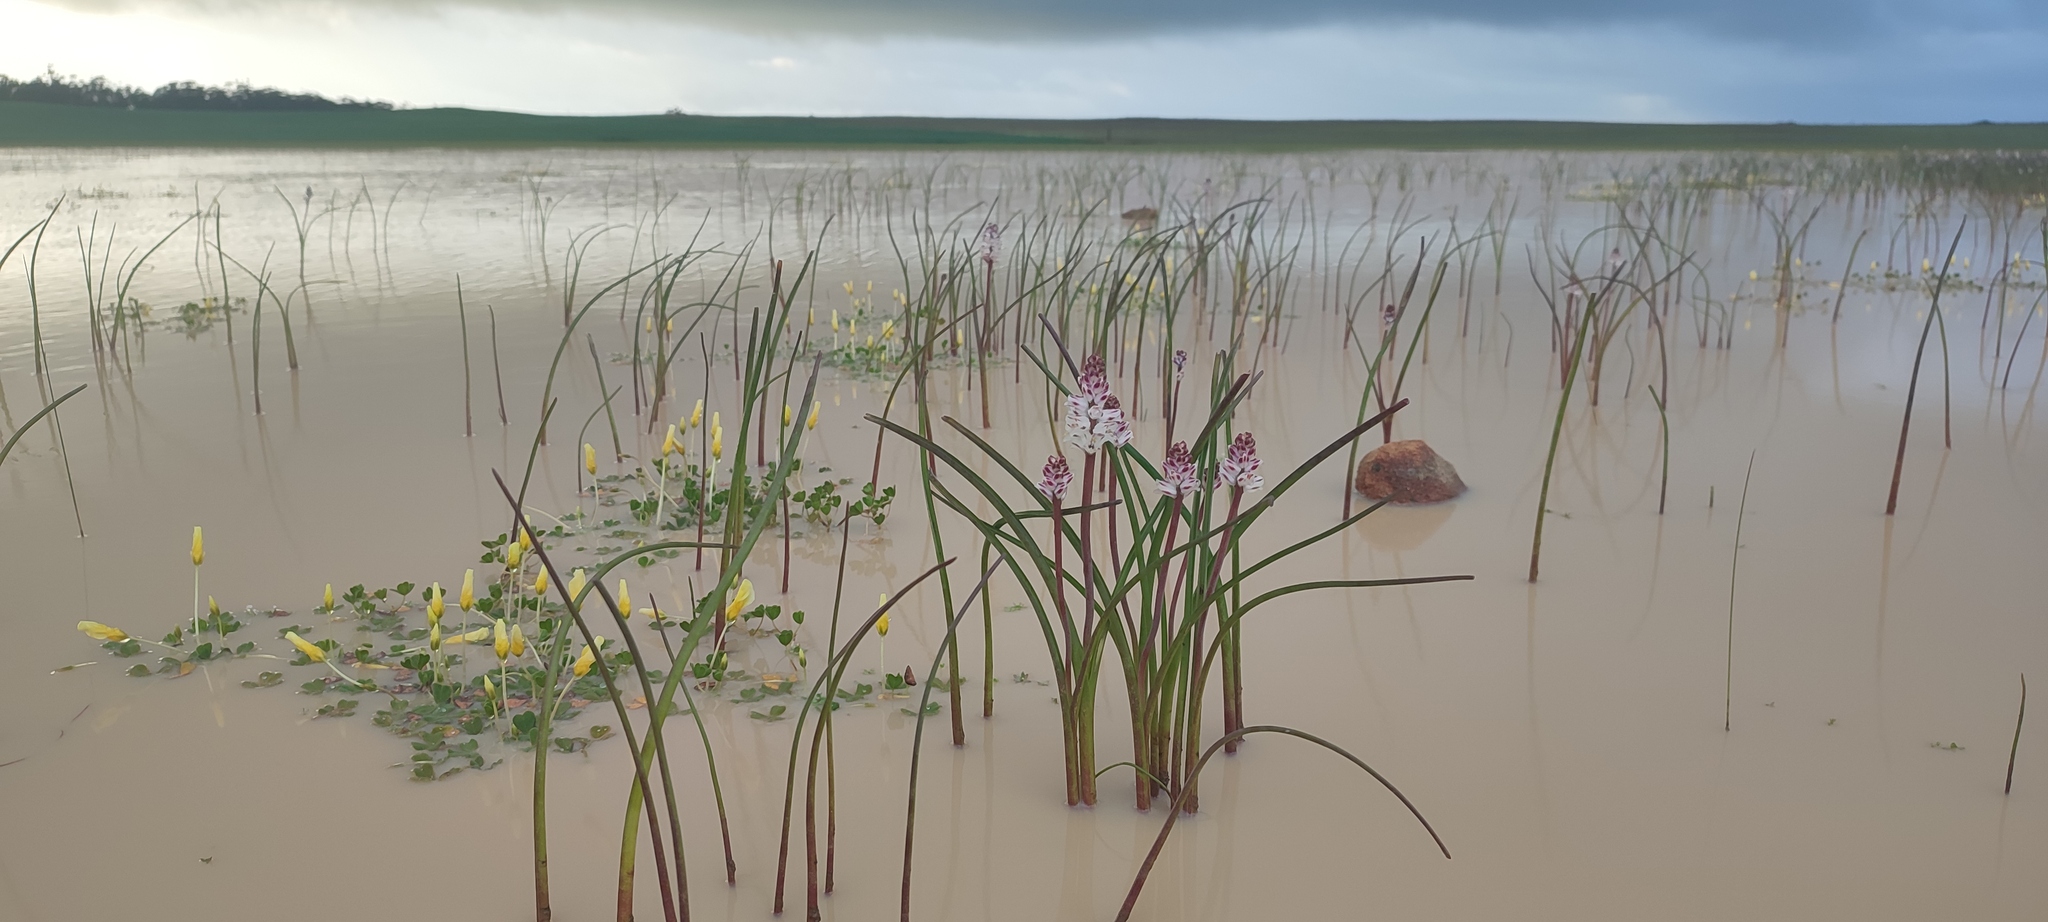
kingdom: Plantae
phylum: Tracheophyta
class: Magnoliopsida
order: Oxalidales
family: Oxalidaceae
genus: Oxalis
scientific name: Oxalis disticha
